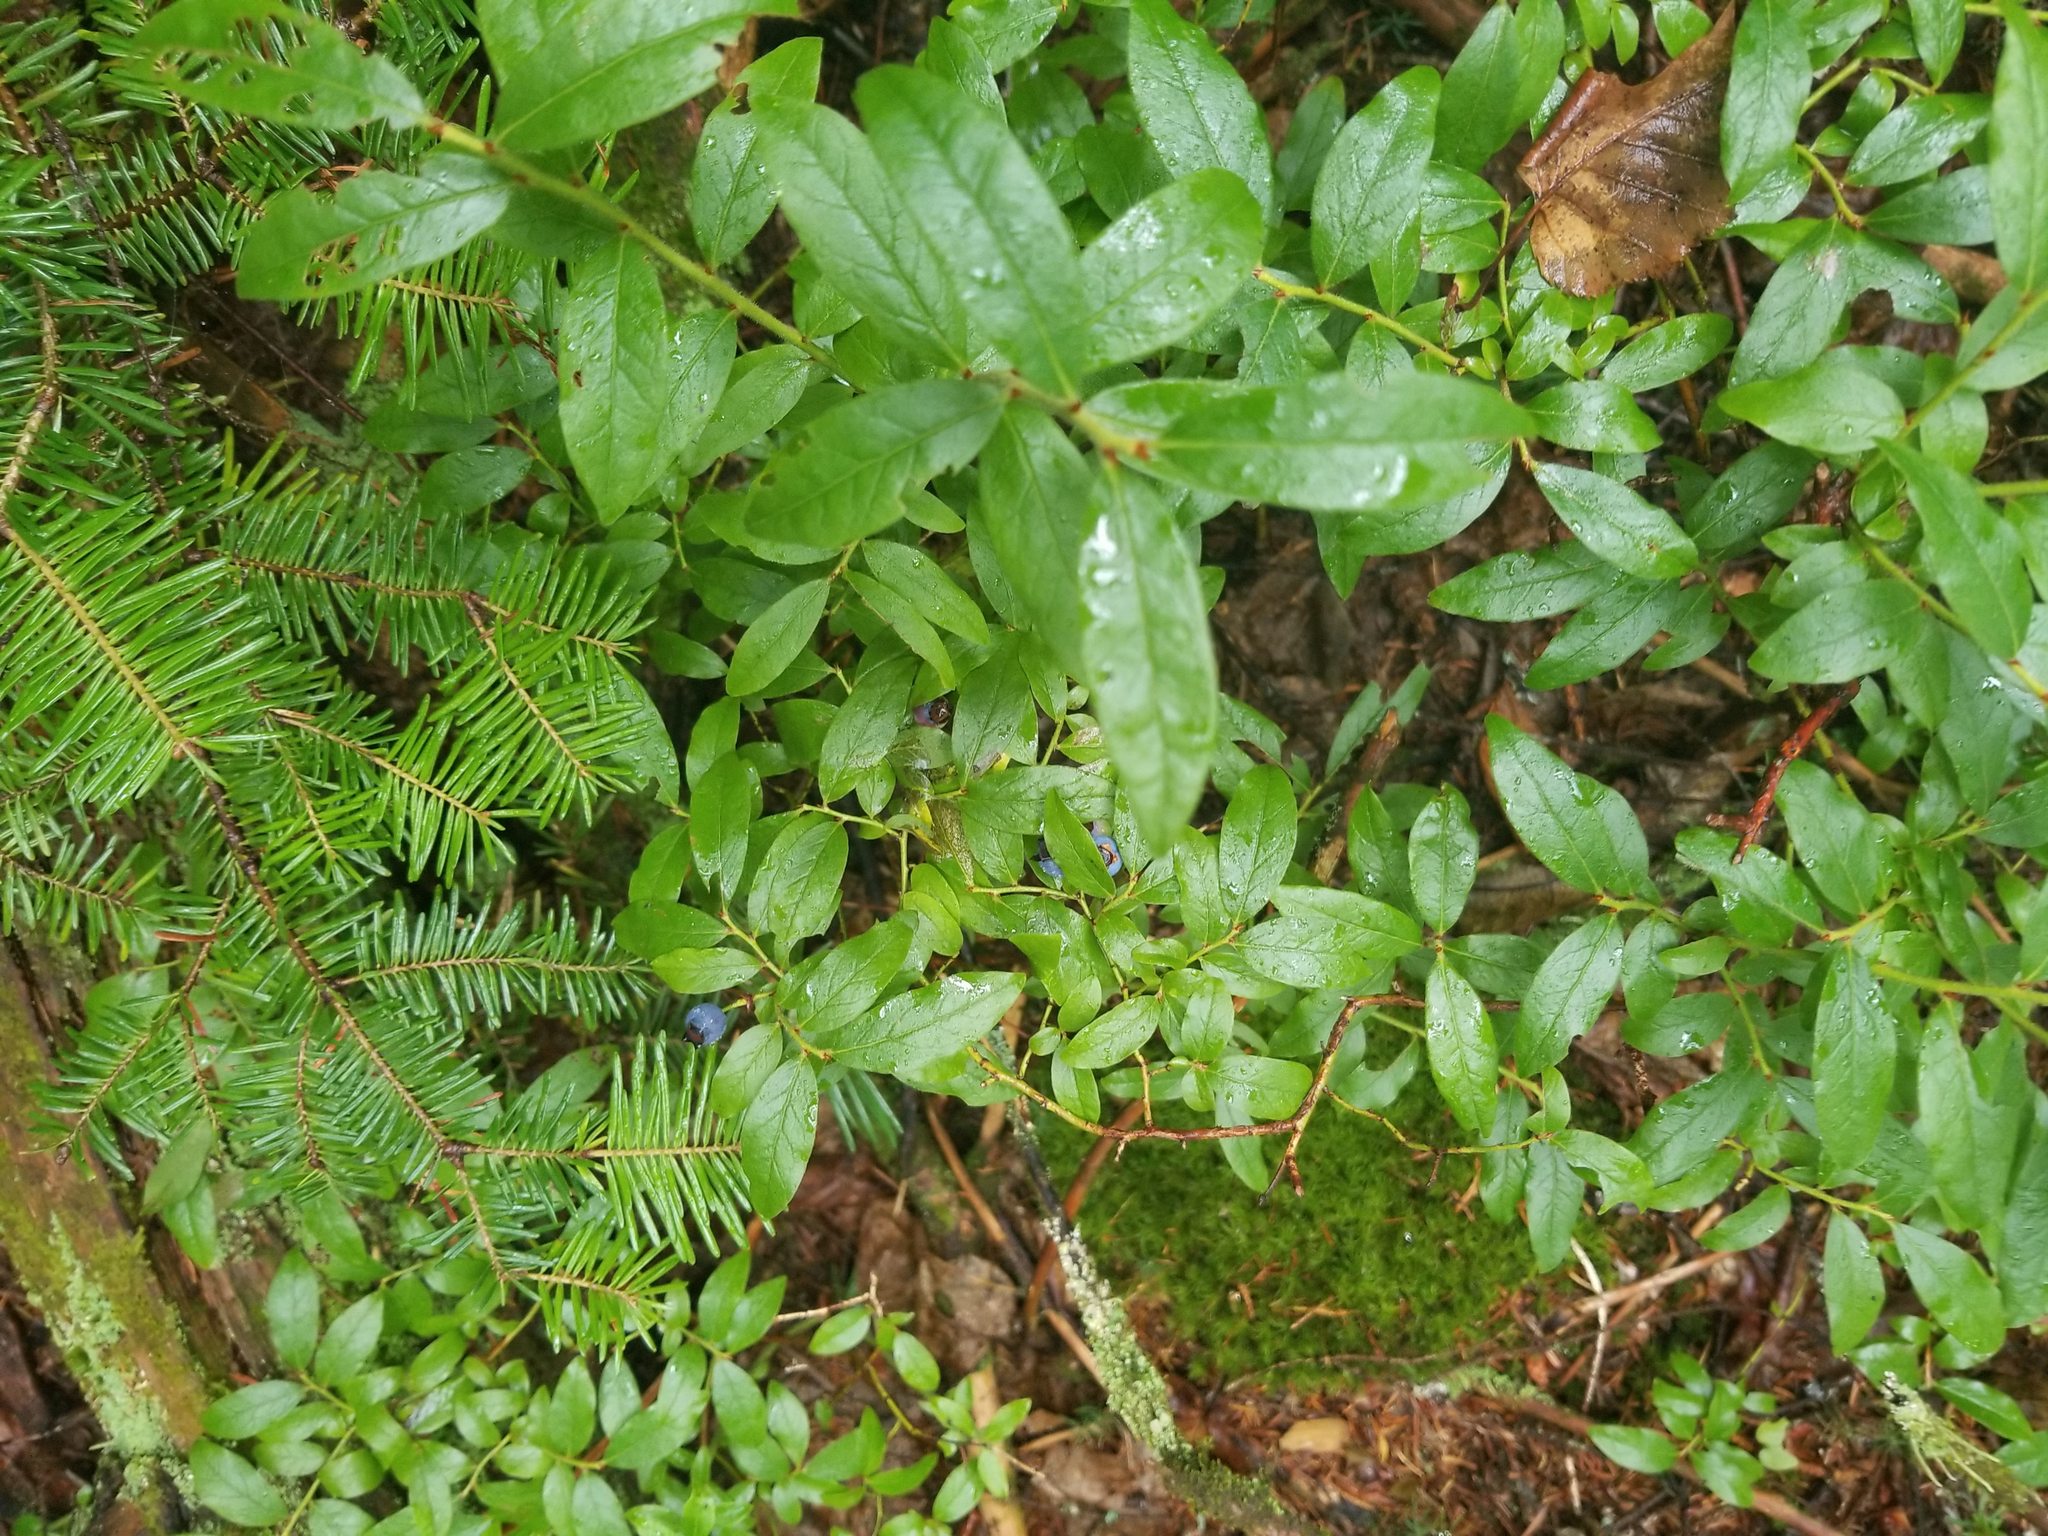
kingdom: Plantae
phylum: Tracheophyta
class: Magnoliopsida
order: Ericales
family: Ericaceae
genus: Vaccinium
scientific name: Vaccinium angustifolium
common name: Early lowbush blueberry
